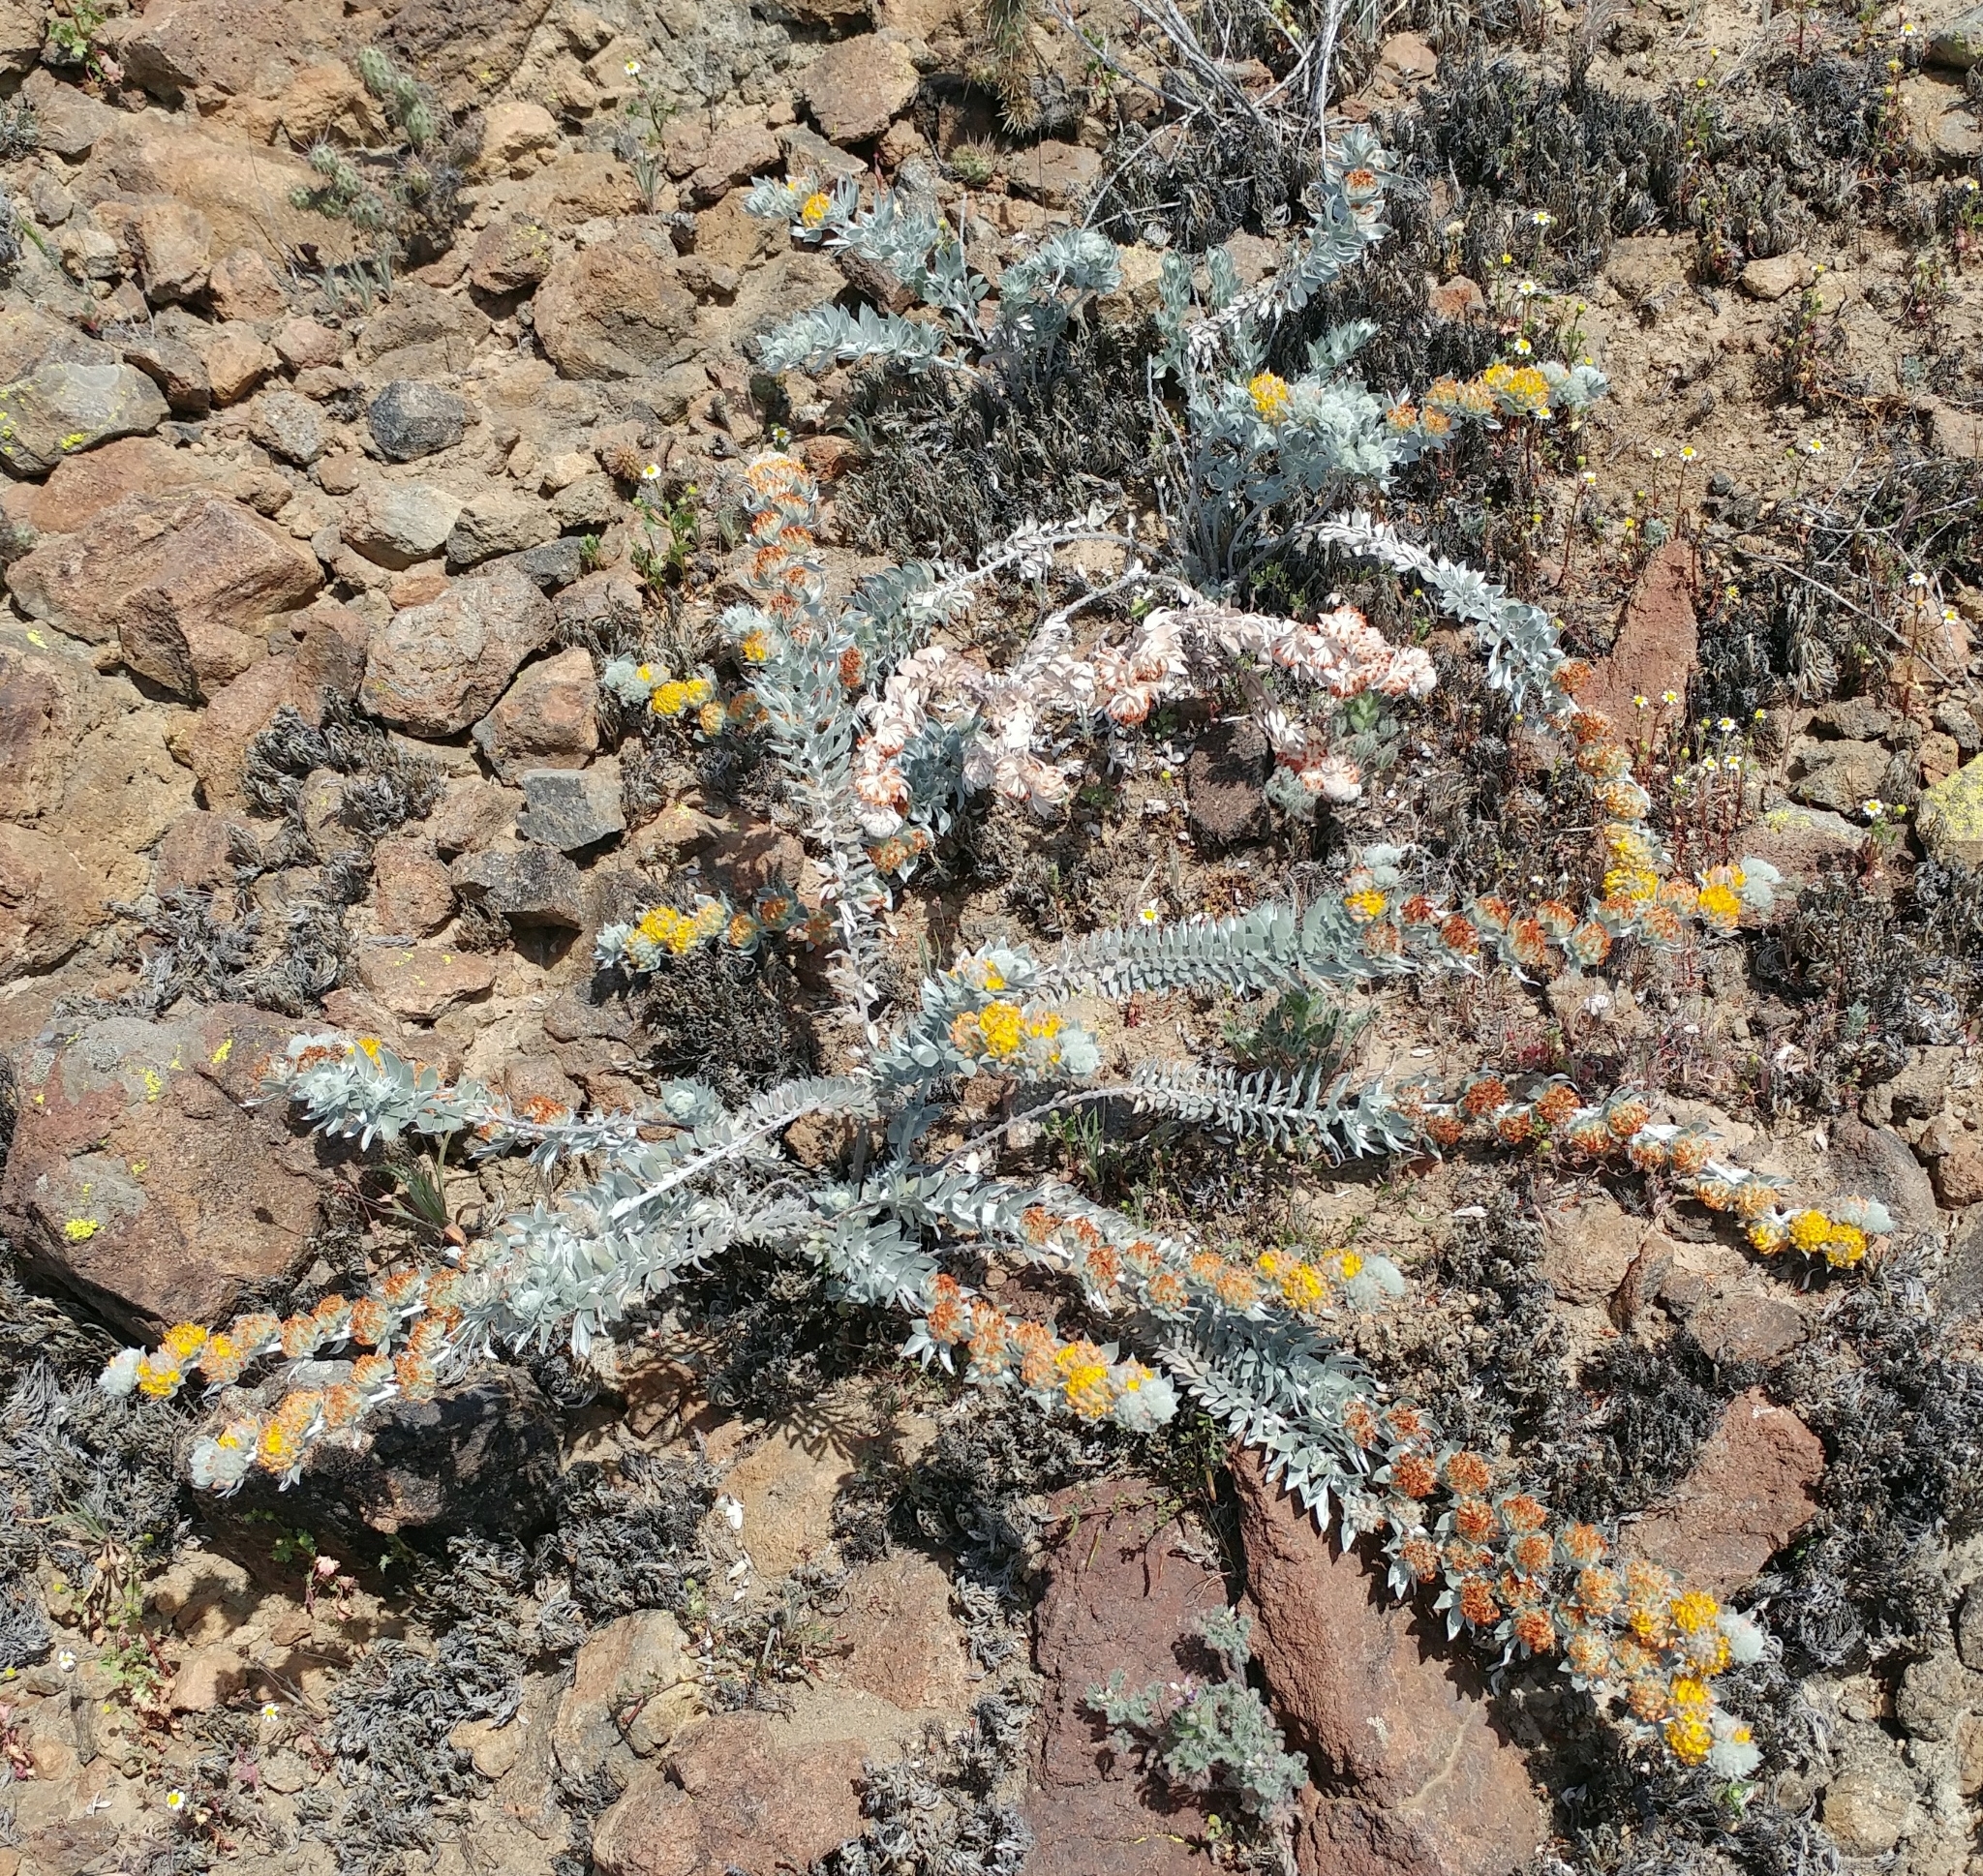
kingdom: Plantae
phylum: Tracheophyta
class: Magnoliopsida
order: Fabales
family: Fabaceae
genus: Acmispon
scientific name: Acmispon argophyllus
